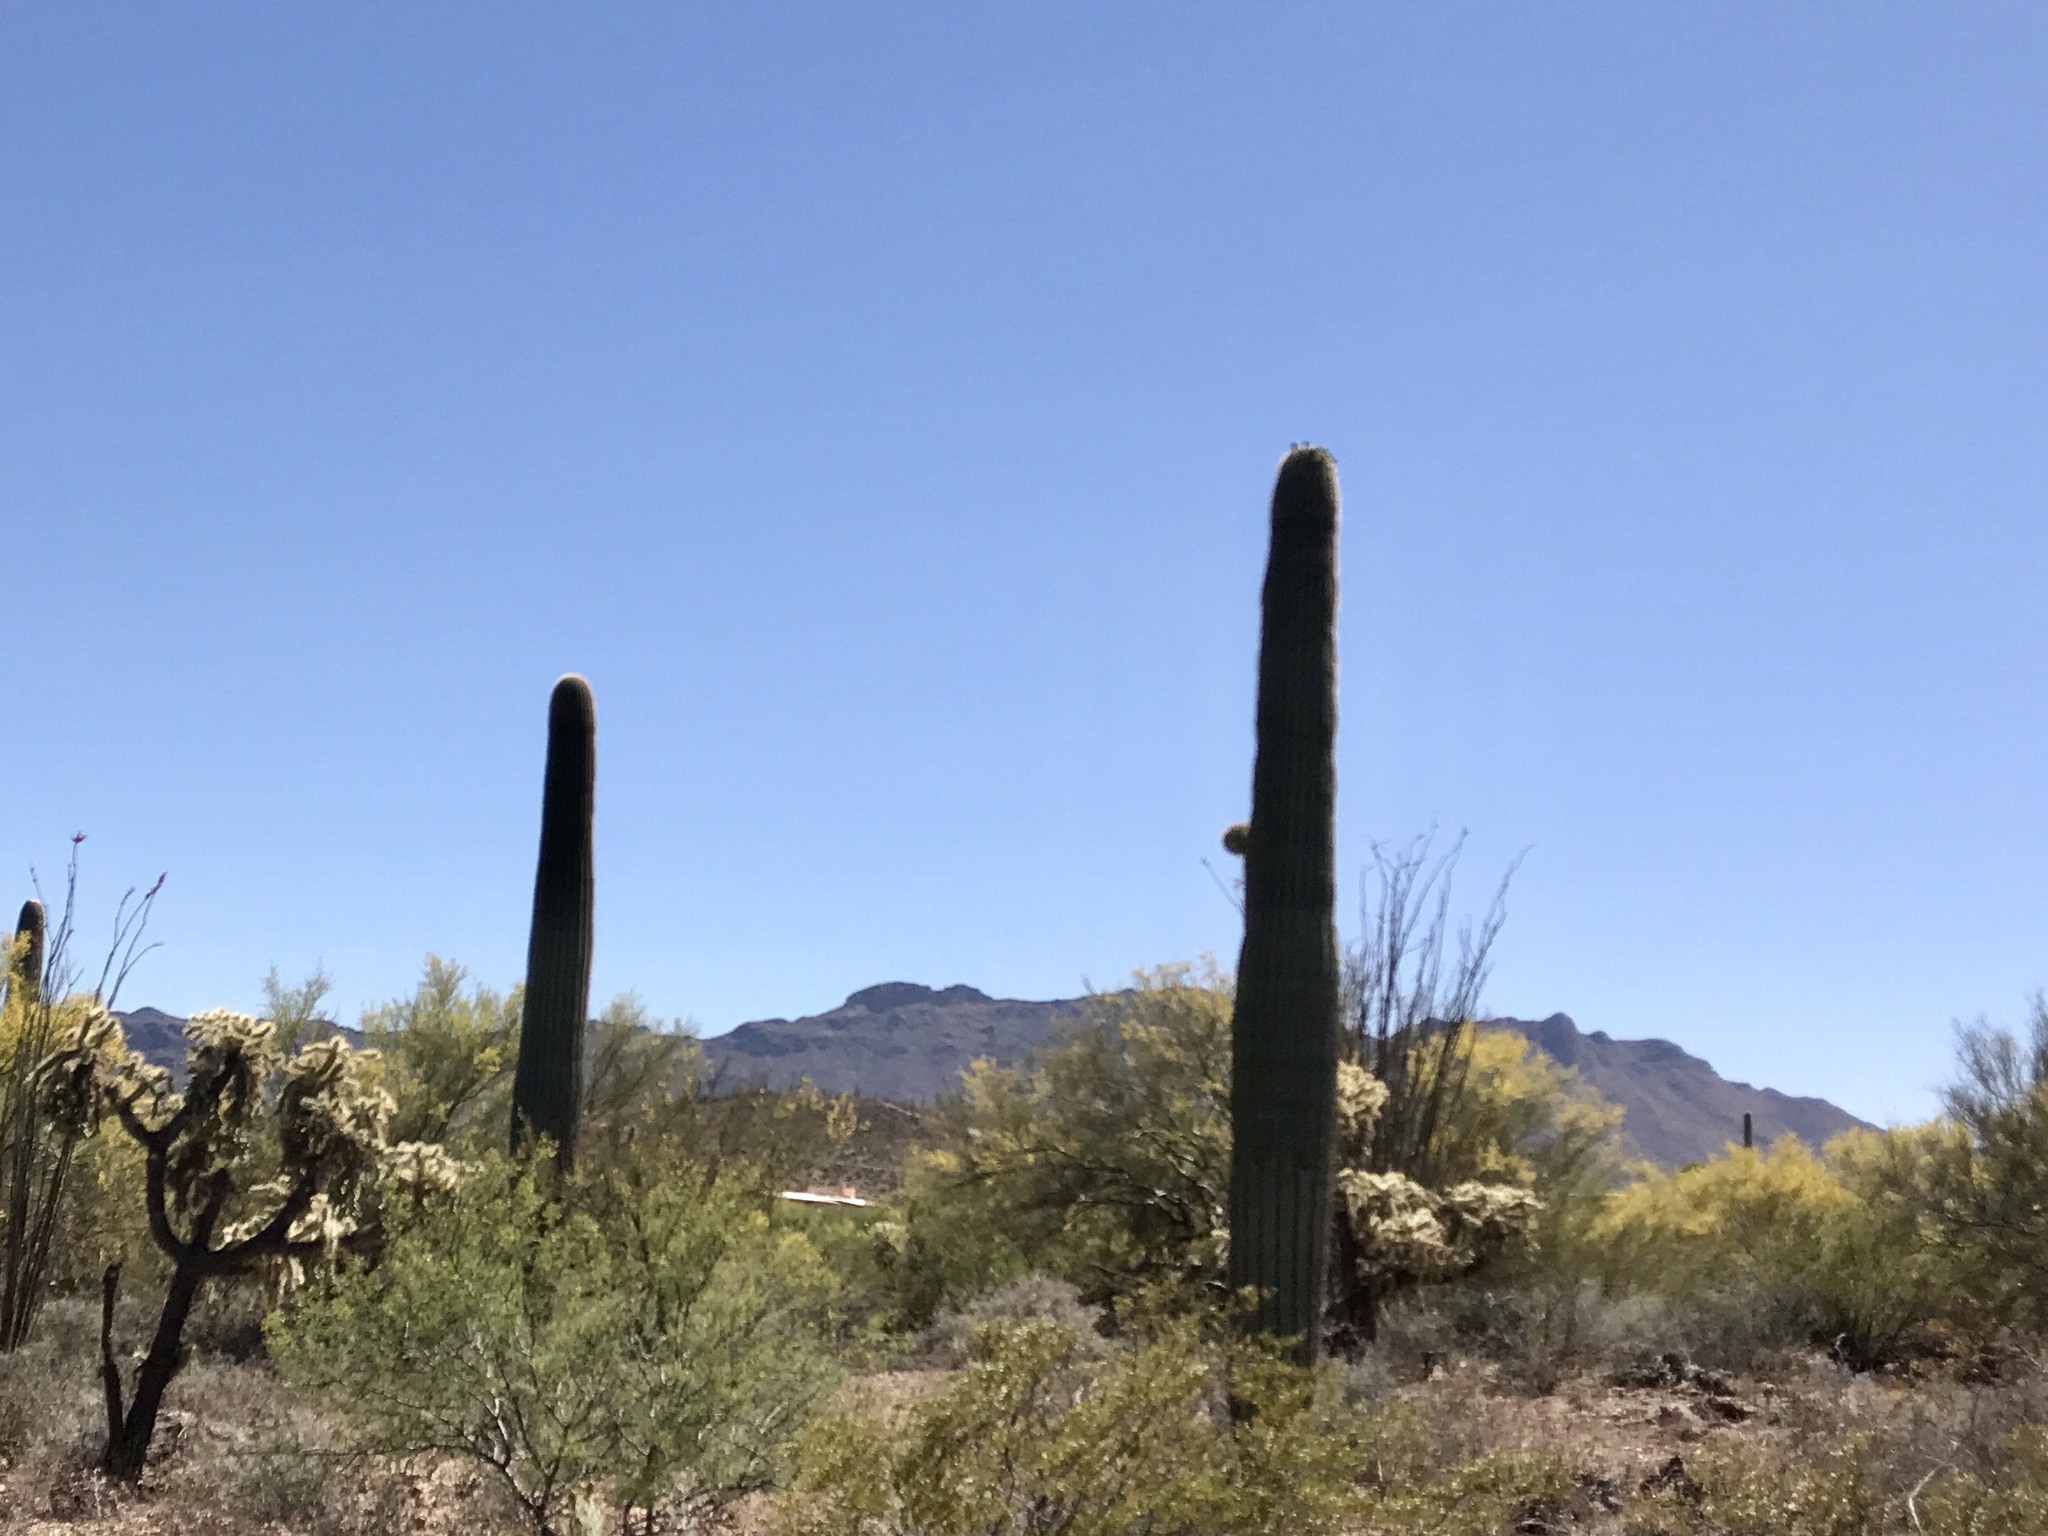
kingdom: Plantae
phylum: Tracheophyta
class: Magnoliopsida
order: Caryophyllales
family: Cactaceae
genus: Carnegiea
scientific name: Carnegiea gigantea
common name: Saguaro
